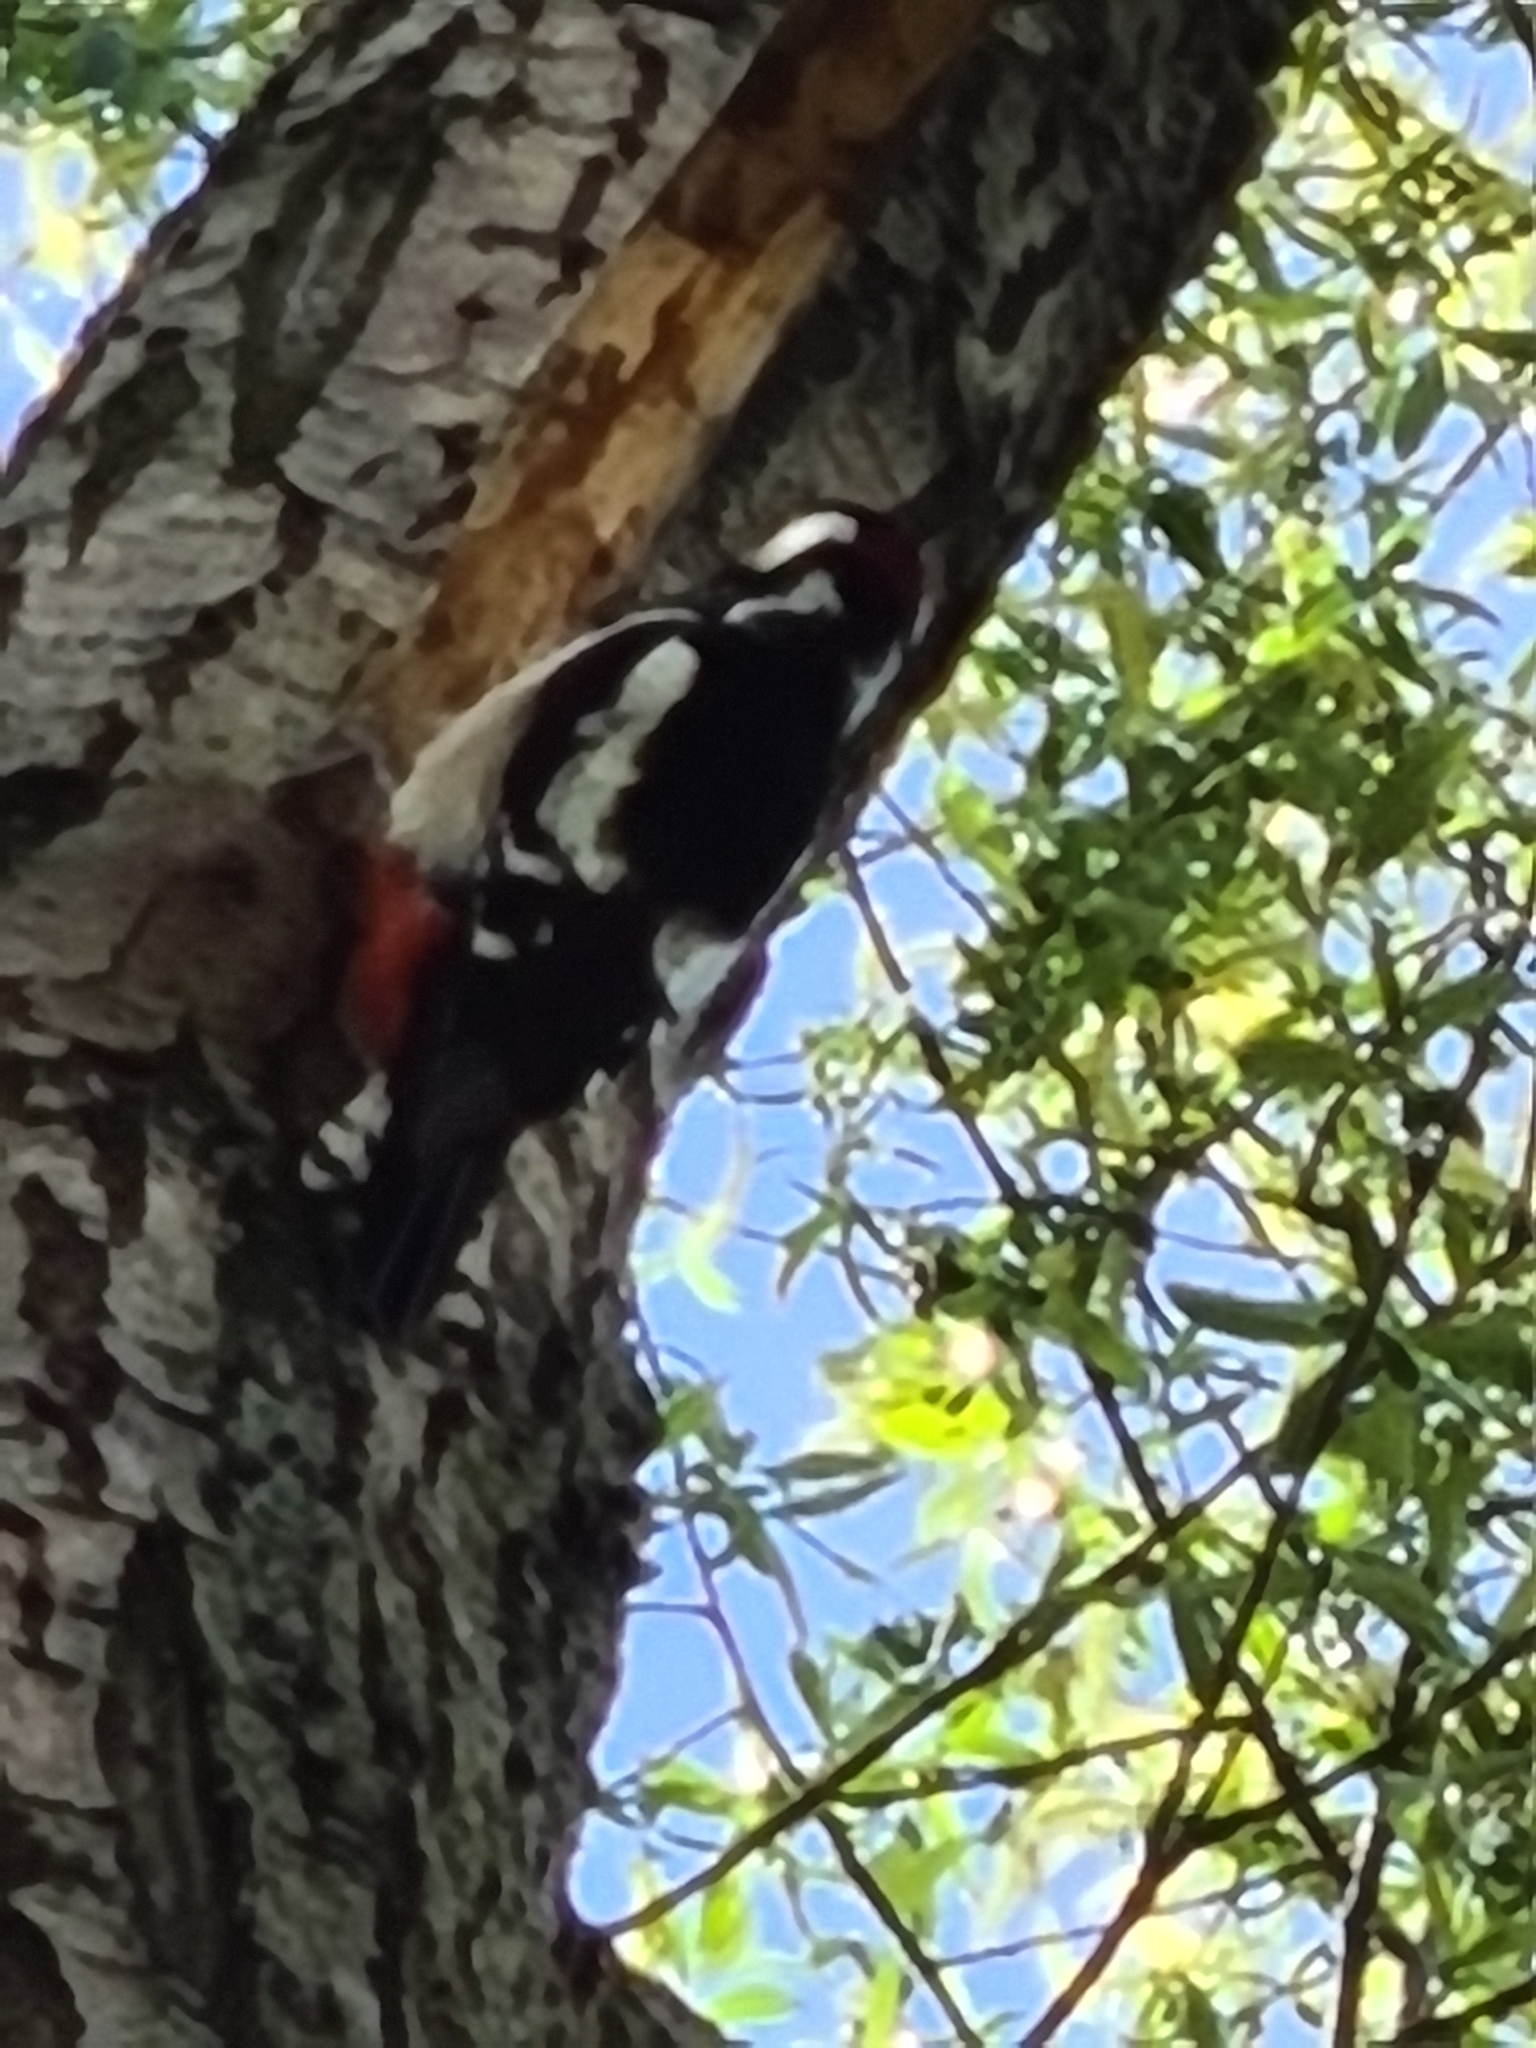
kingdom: Animalia
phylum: Chordata
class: Aves
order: Piciformes
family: Picidae
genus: Dendrocopos
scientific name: Dendrocopos major
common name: Great spotted woodpecker
